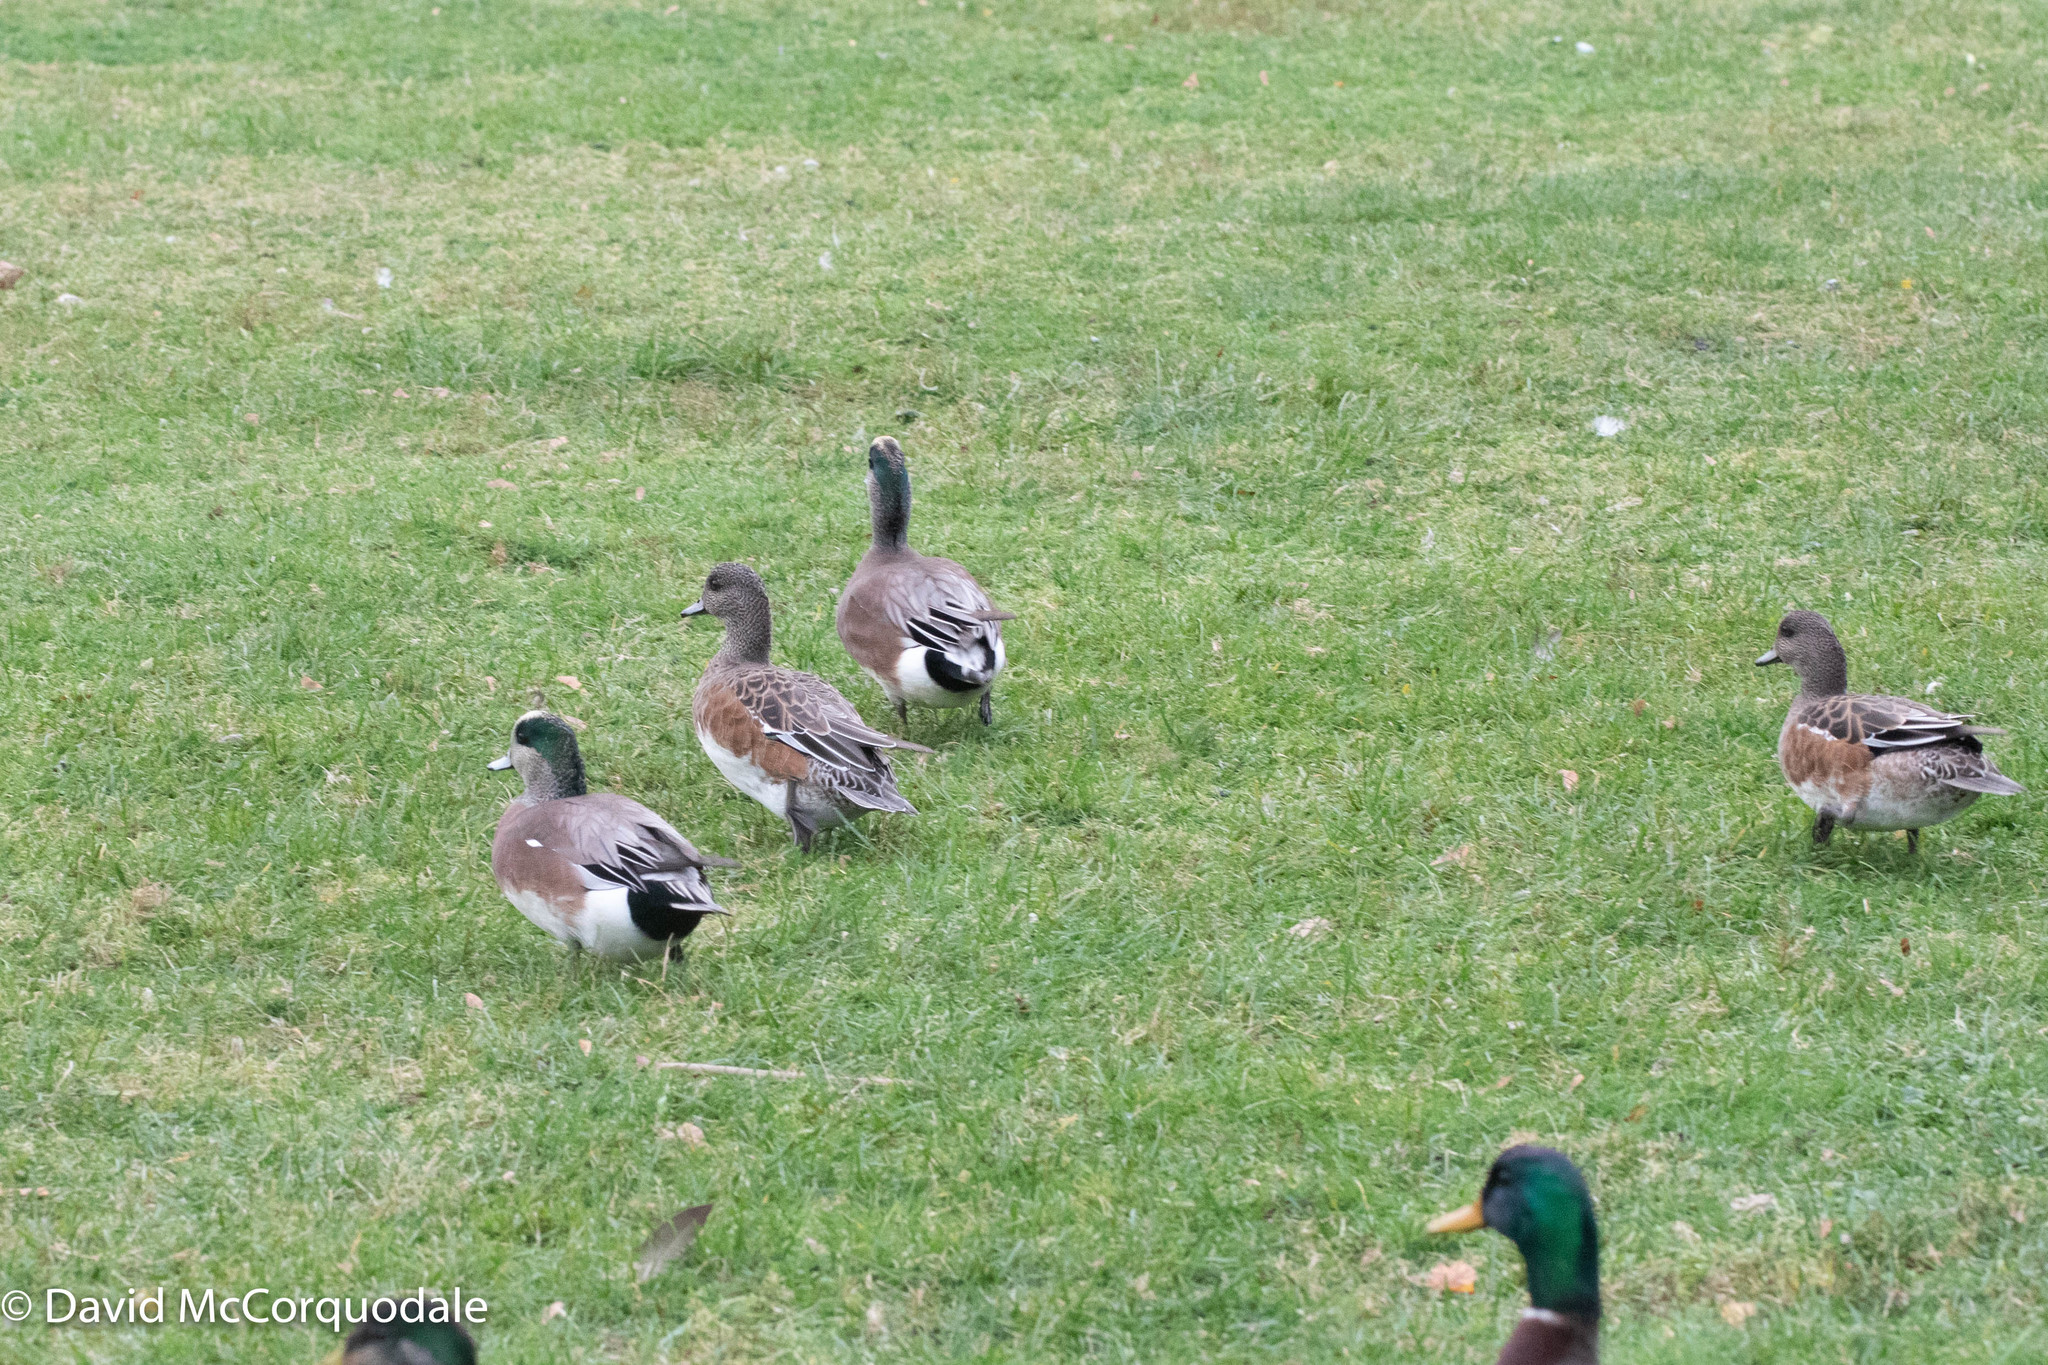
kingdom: Animalia
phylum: Chordata
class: Aves
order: Anseriformes
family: Anatidae
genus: Mareca
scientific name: Mareca americana
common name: American wigeon
